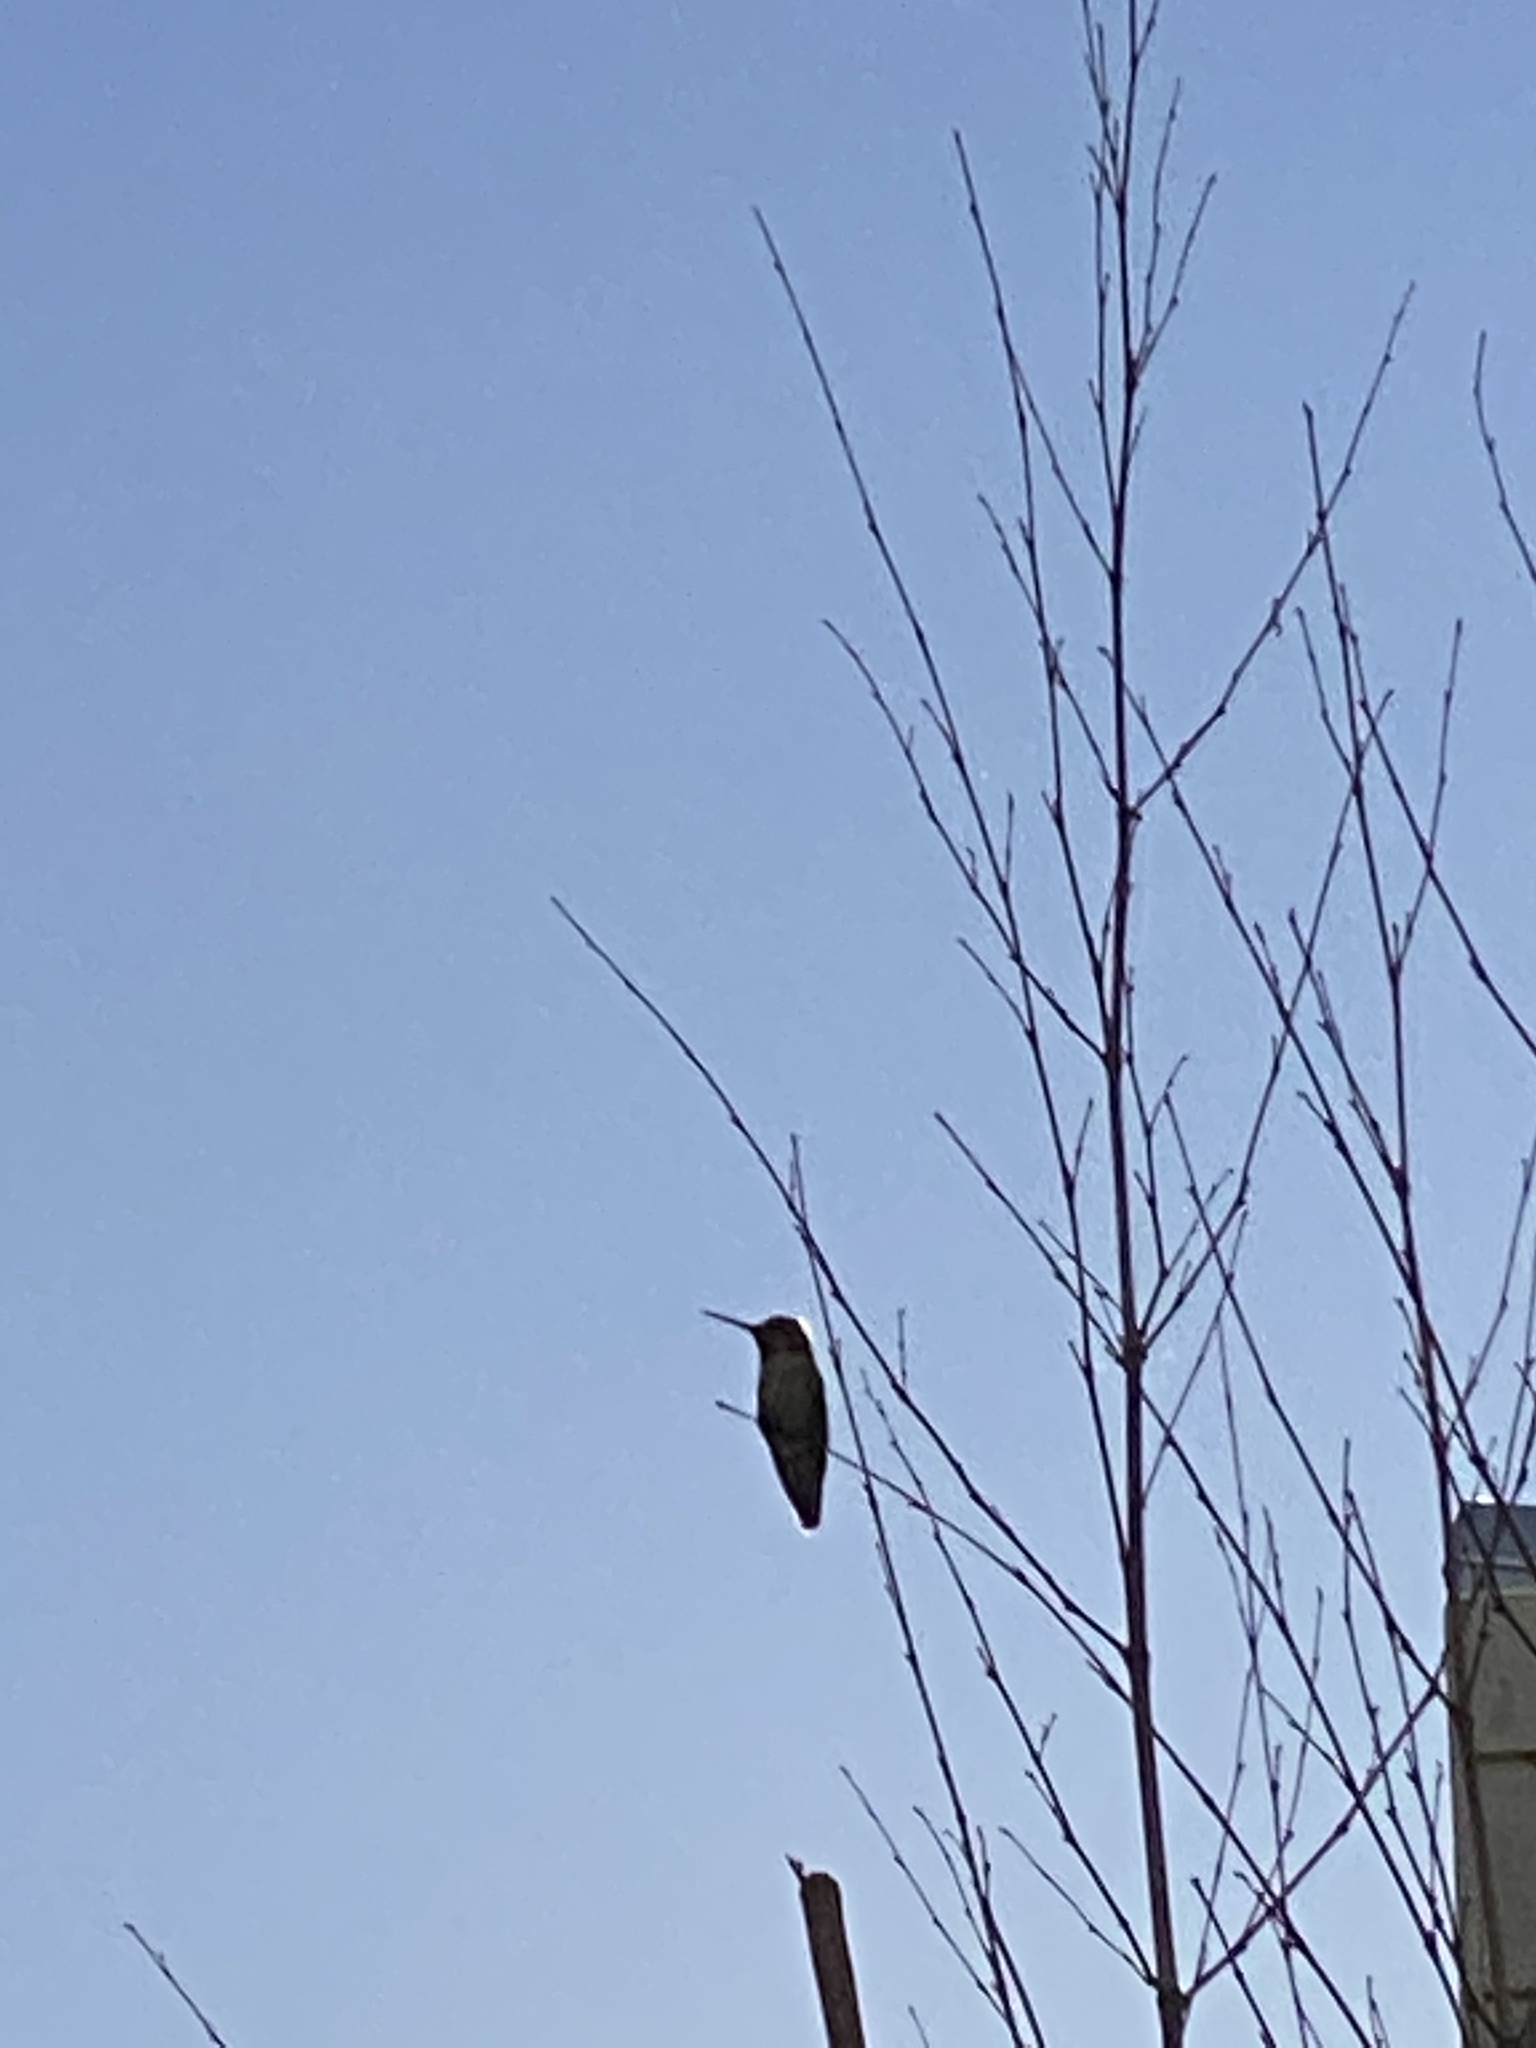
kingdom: Animalia
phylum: Chordata
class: Aves
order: Apodiformes
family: Trochilidae
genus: Calypte
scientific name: Calypte anna
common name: Anna's hummingbird
